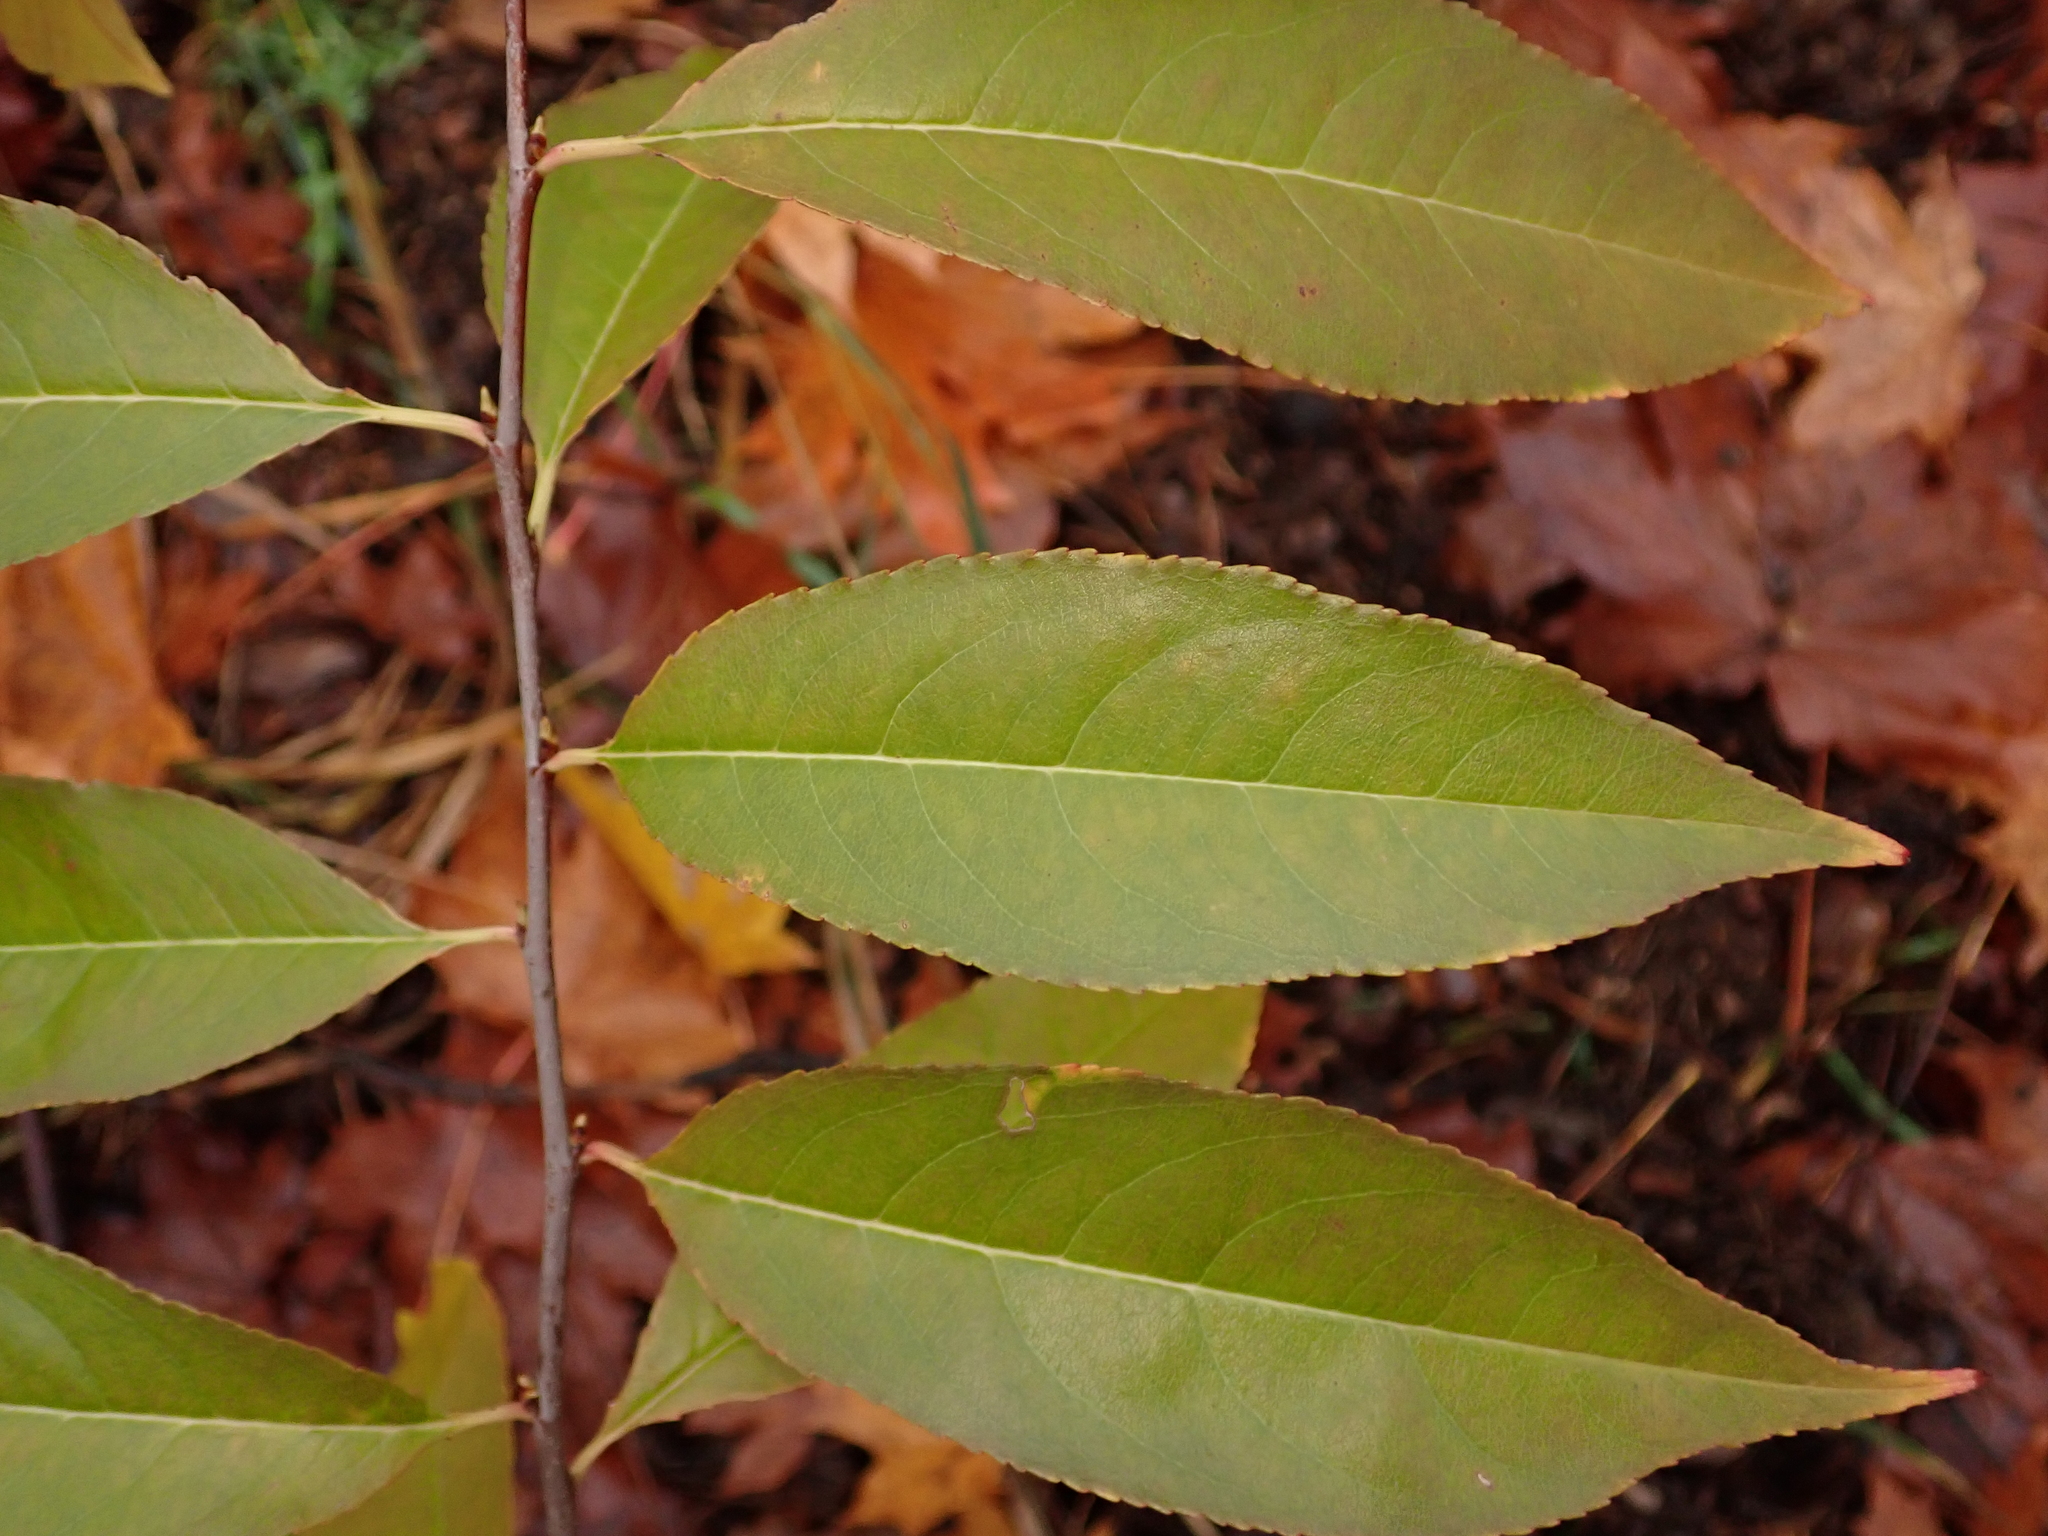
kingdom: Plantae
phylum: Tracheophyta
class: Magnoliopsida
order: Rosales
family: Rosaceae
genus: Prunus
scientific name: Prunus serotina
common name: Black cherry
